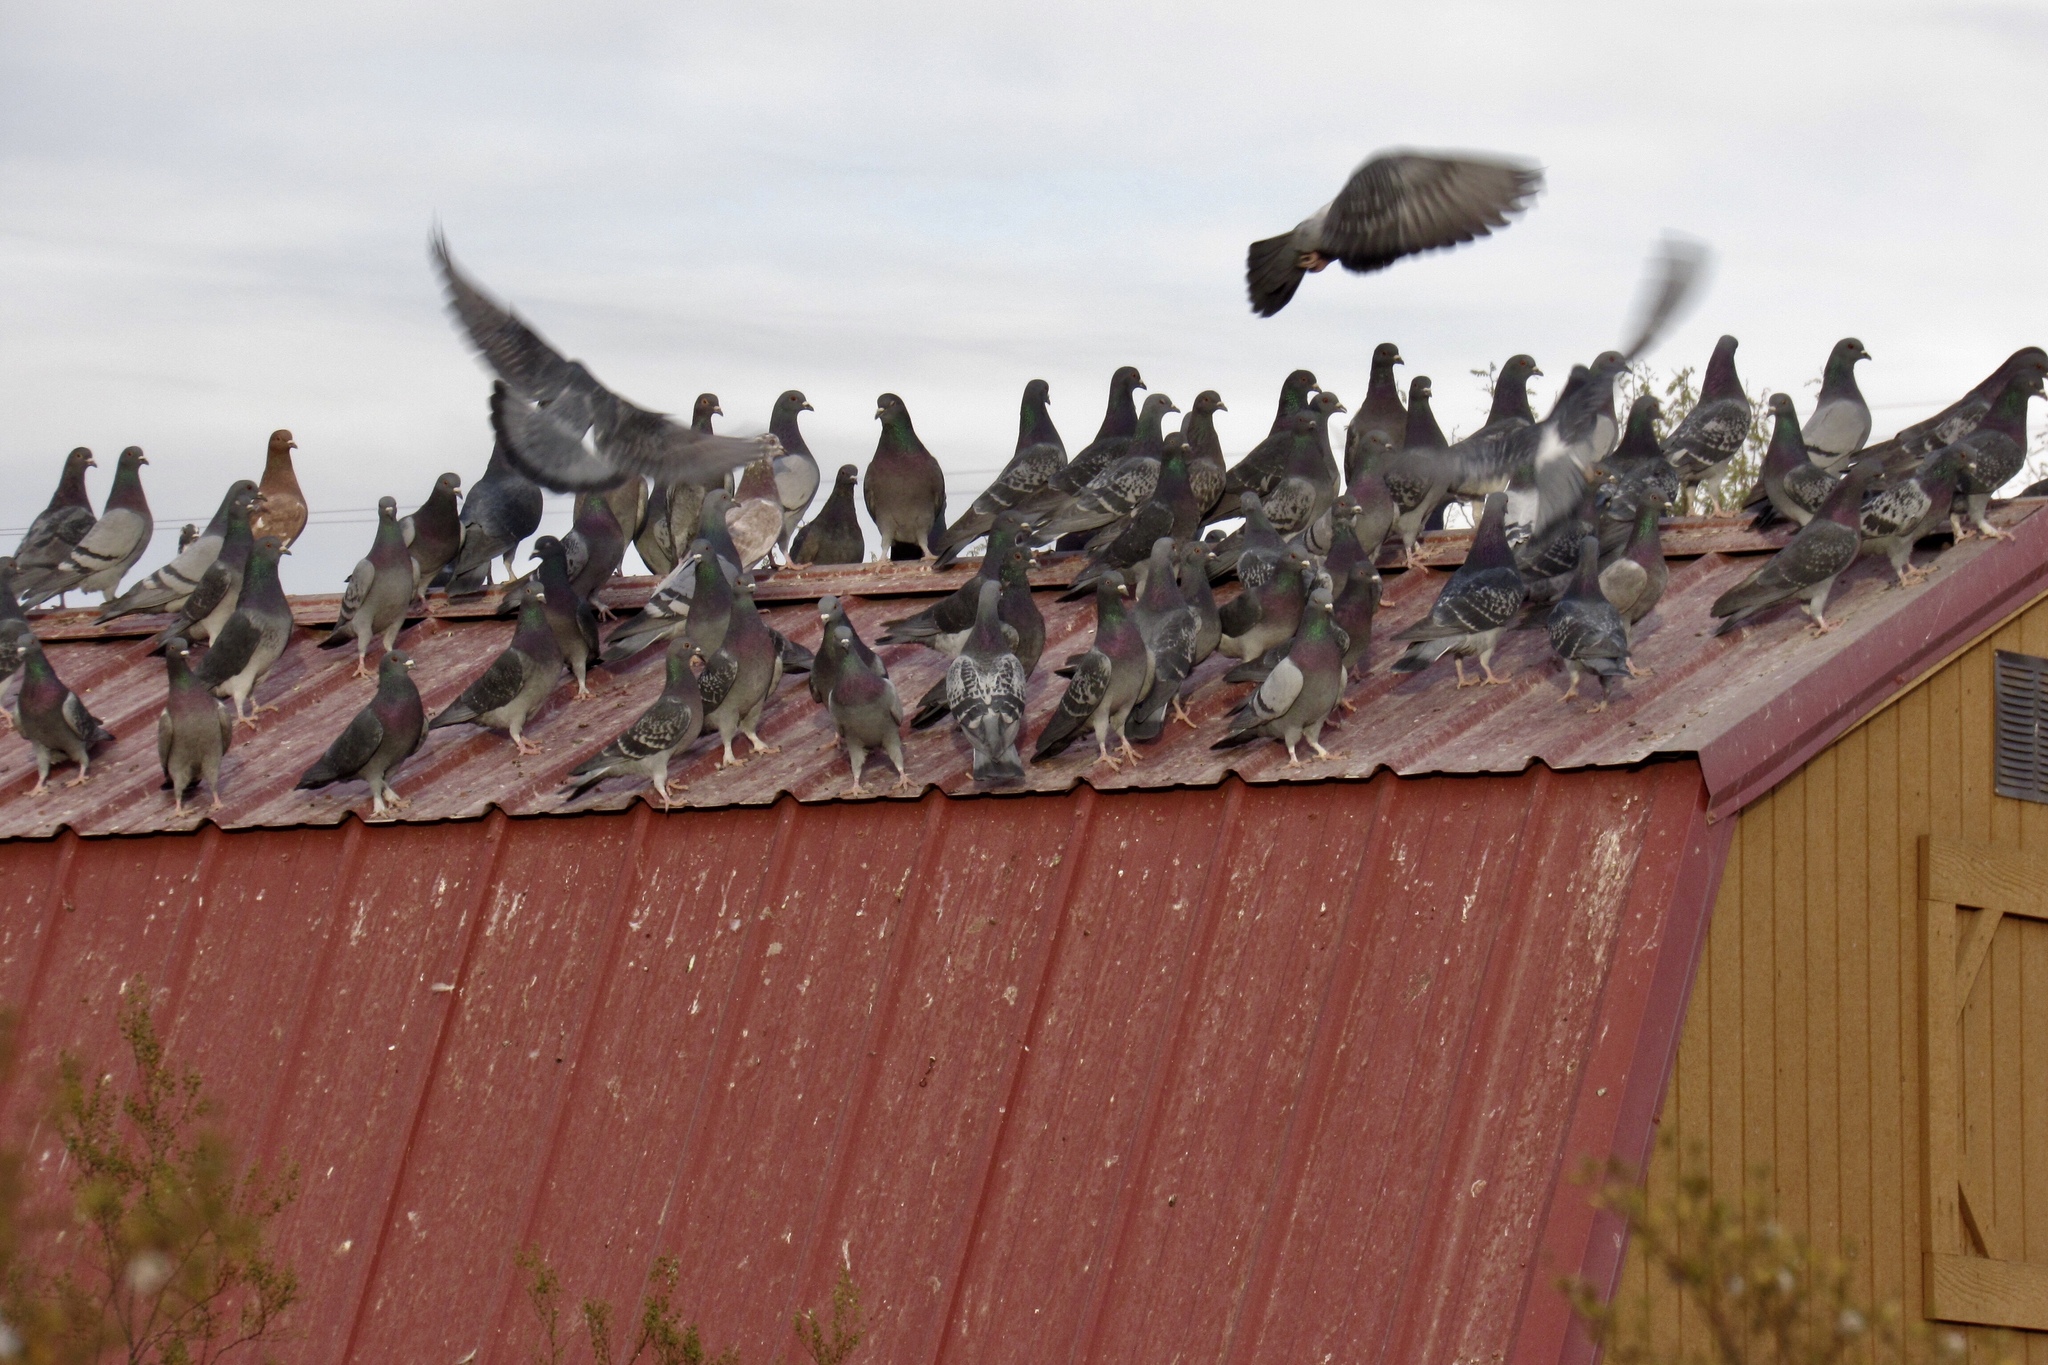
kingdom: Animalia
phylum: Chordata
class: Aves
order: Columbiformes
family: Columbidae
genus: Columba
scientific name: Columba livia
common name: Rock pigeon
